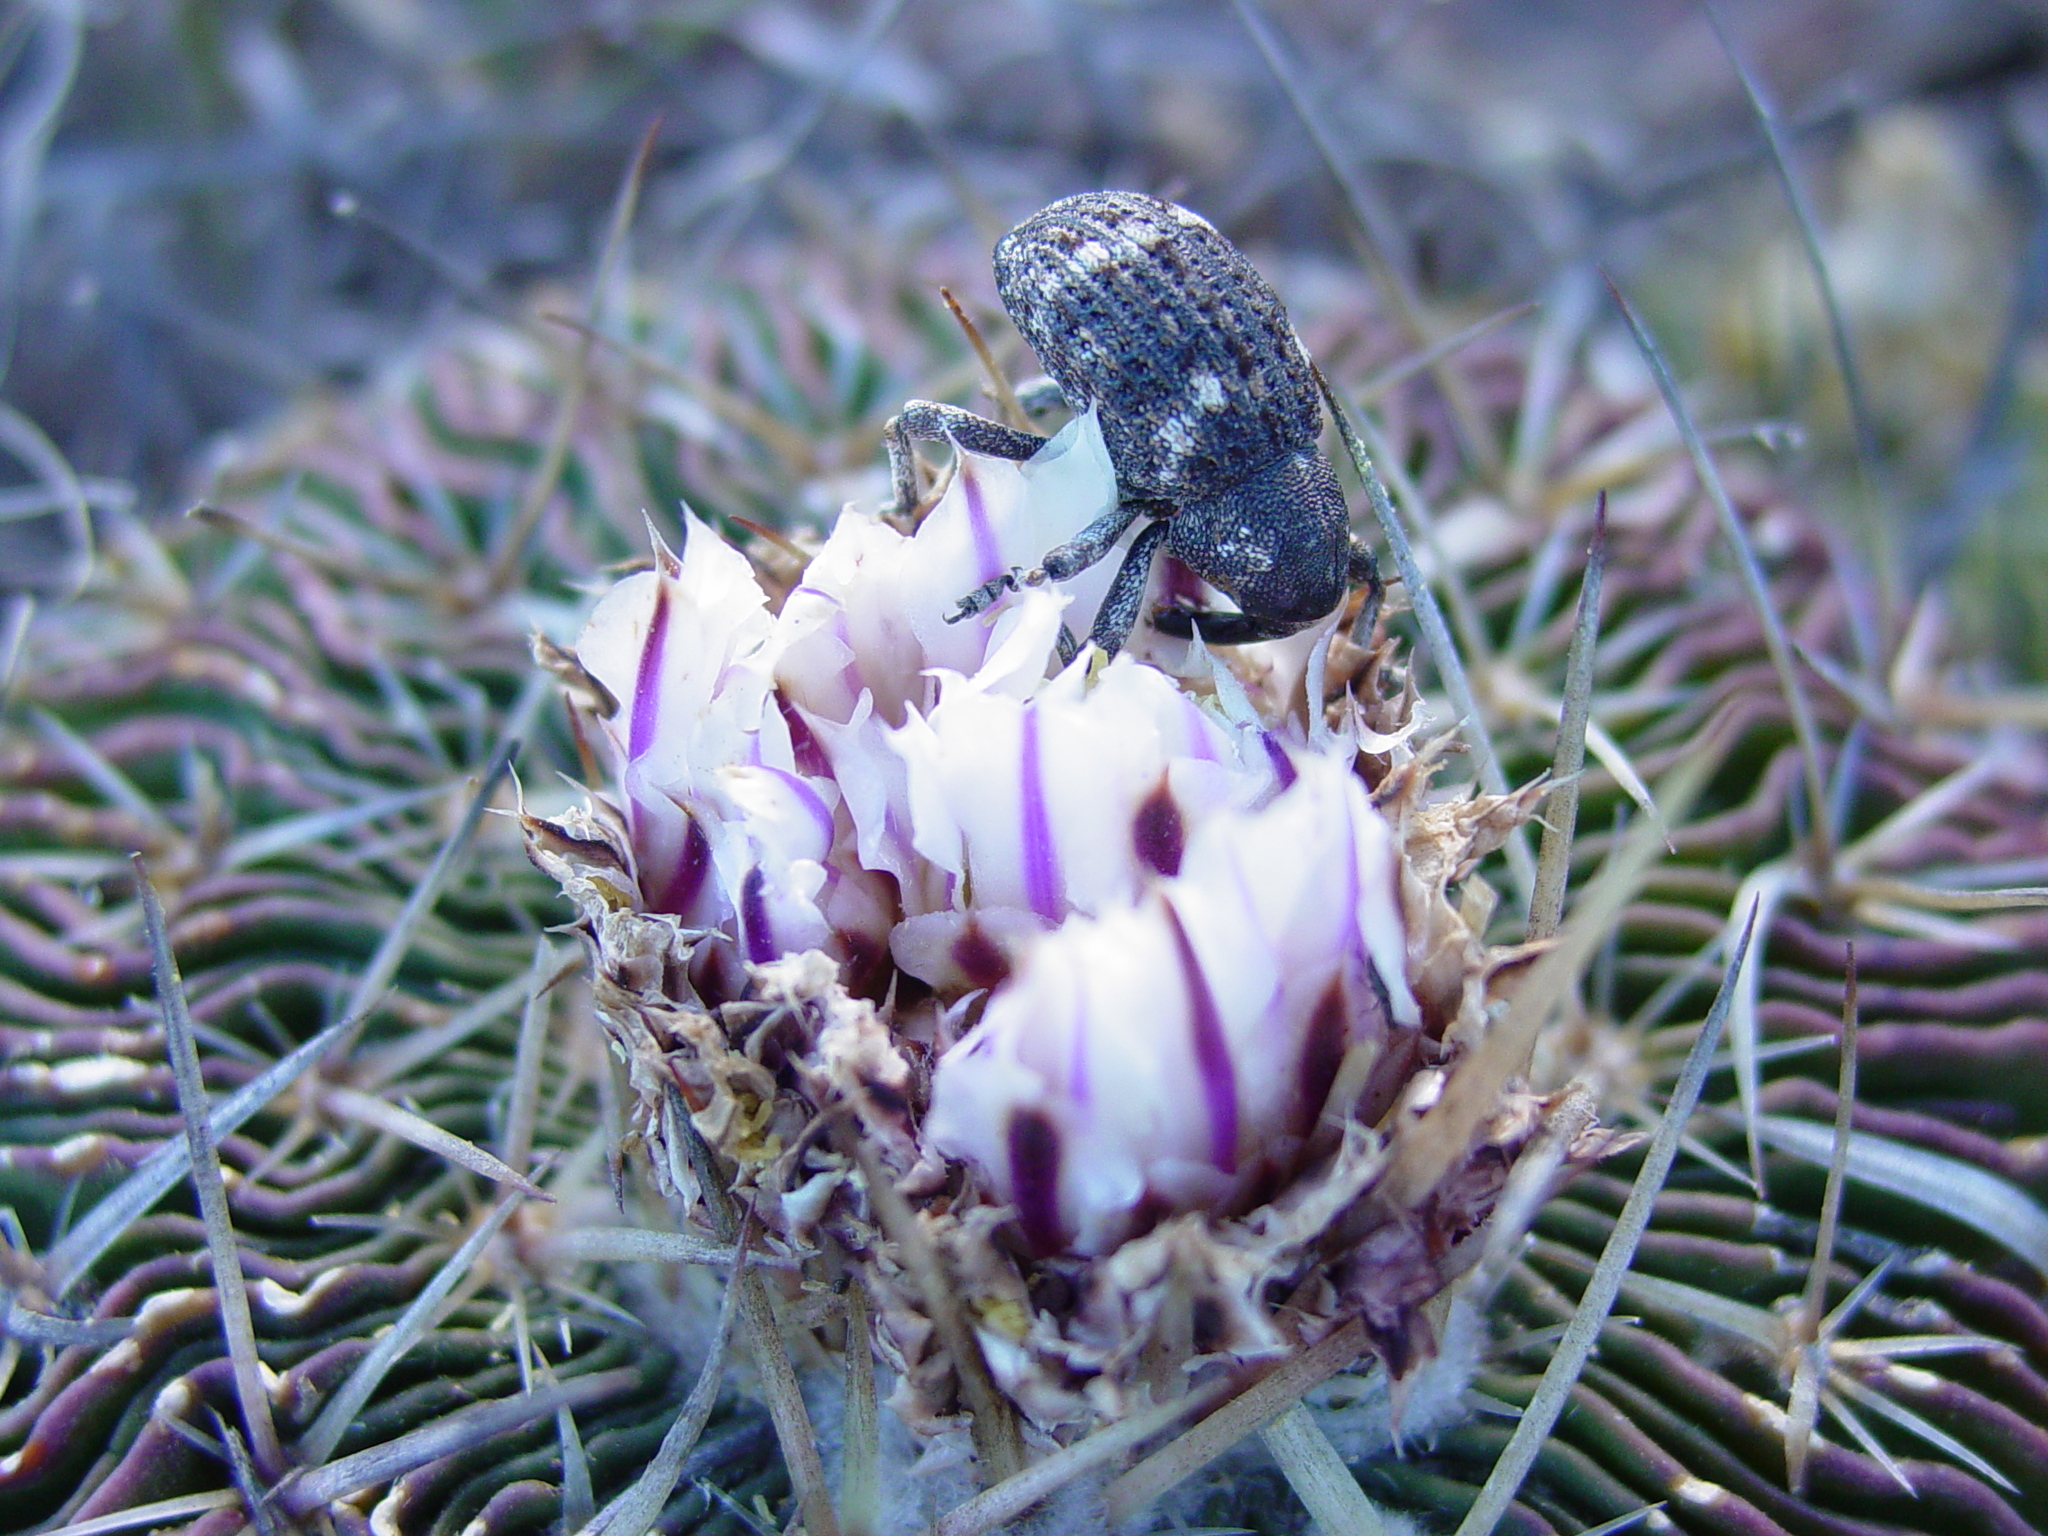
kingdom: Plantae
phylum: Tracheophyta
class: Magnoliopsida
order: Caryophyllales
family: Cactaceae
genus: Stenocactus
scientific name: Stenocactus multicostatus
